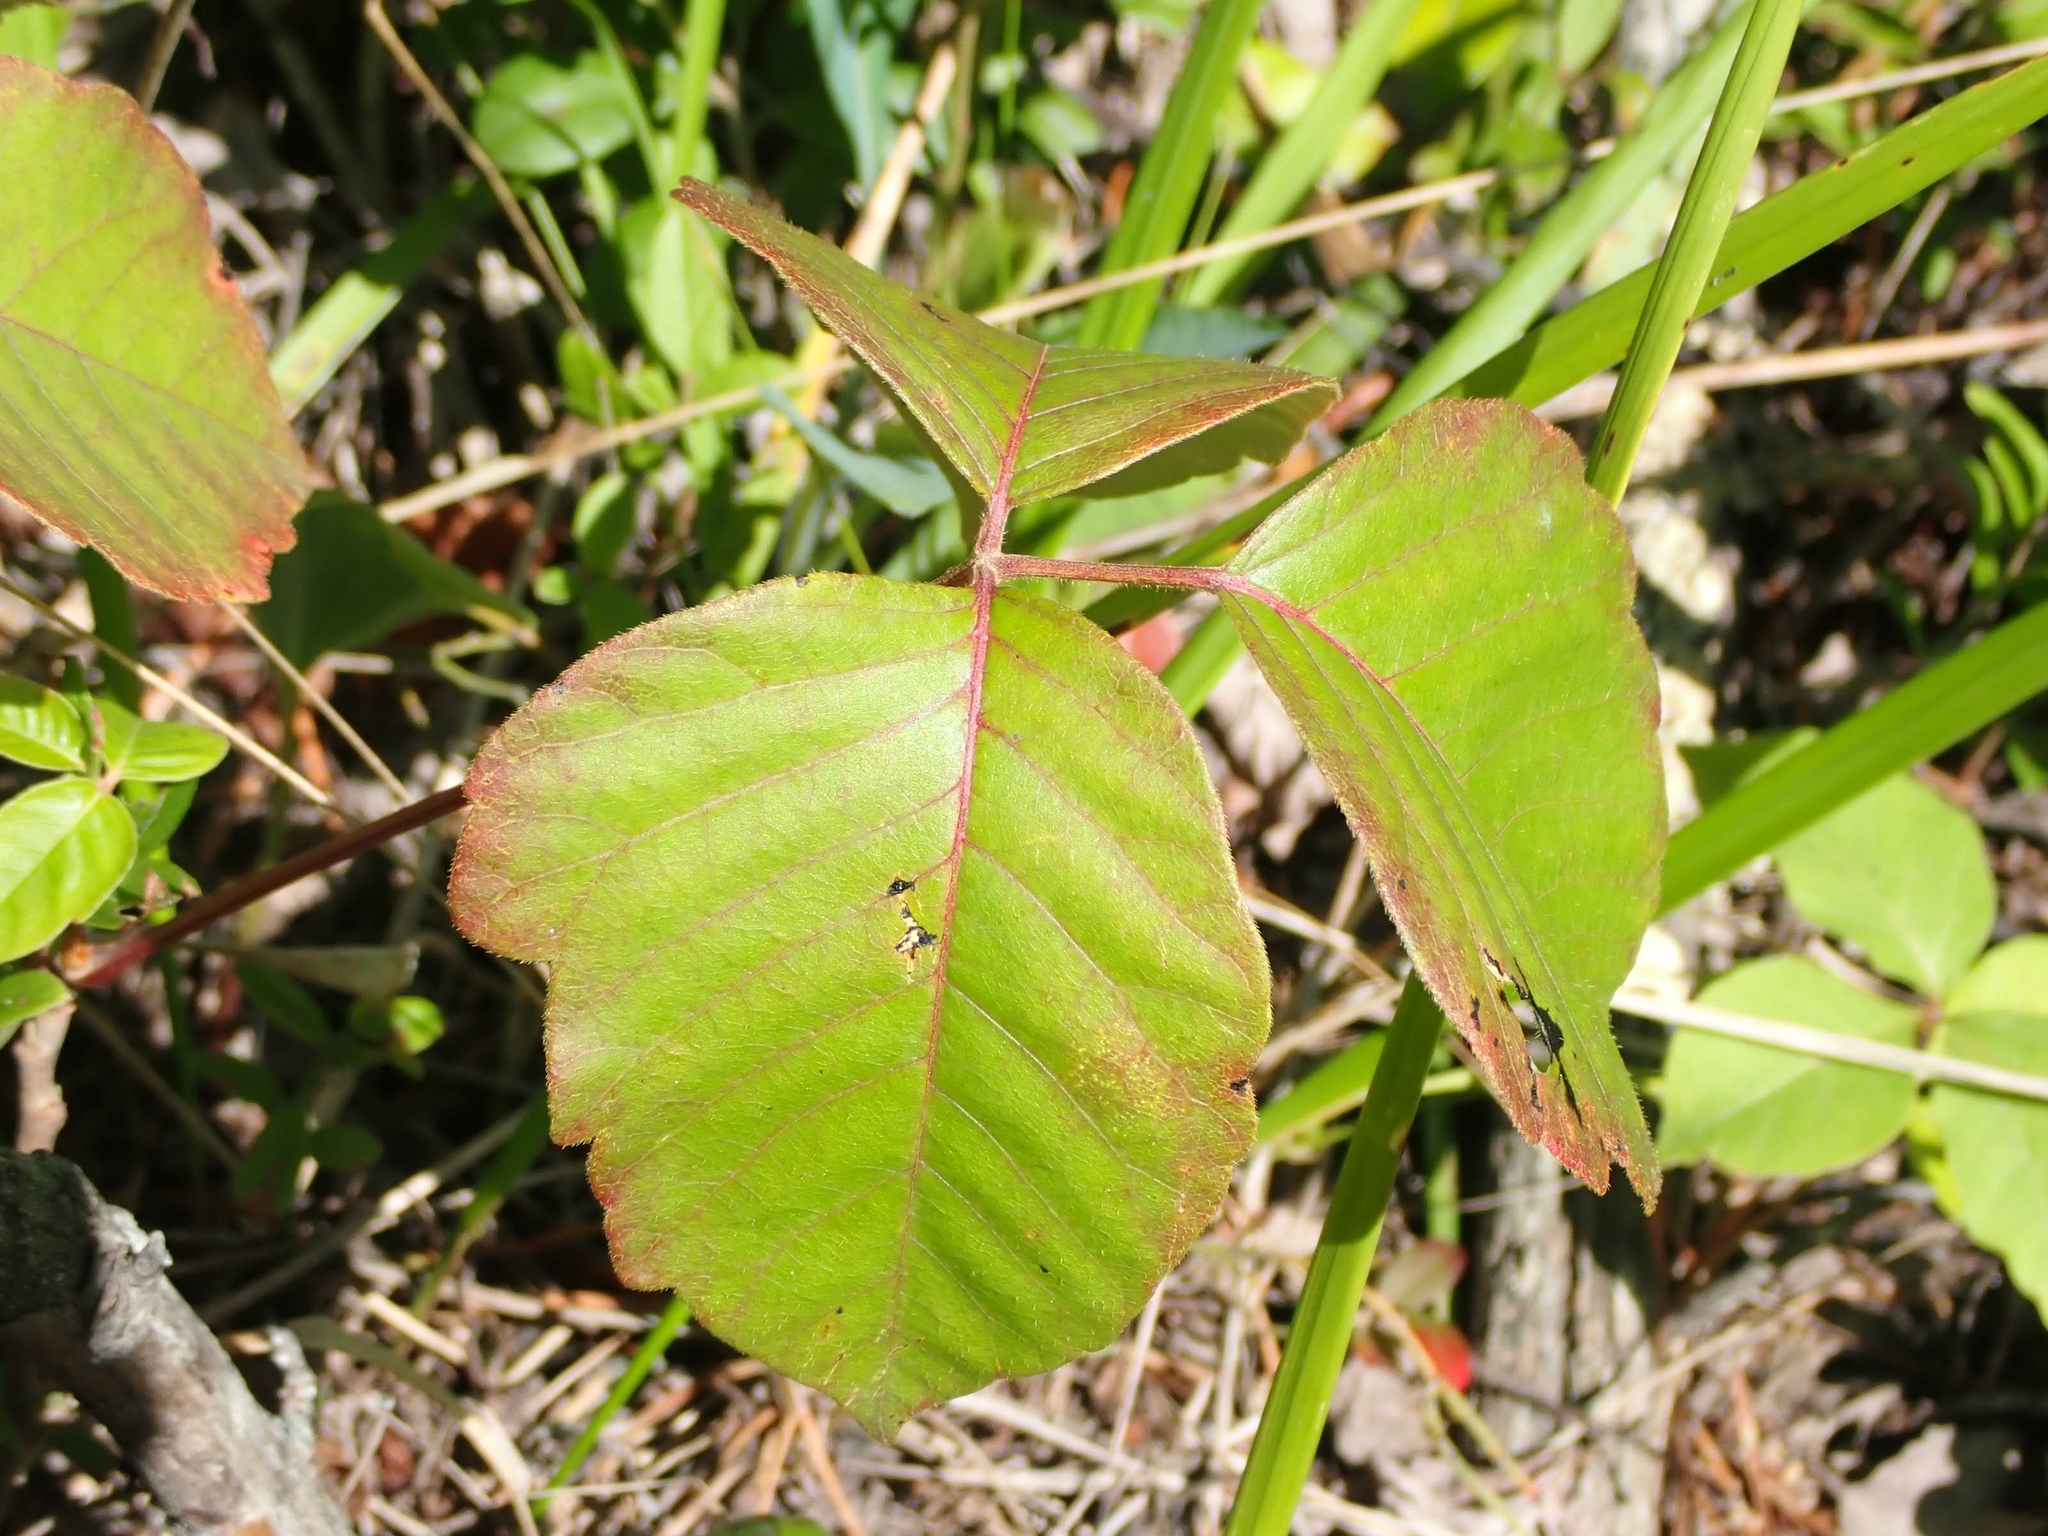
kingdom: Plantae
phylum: Tracheophyta
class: Magnoliopsida
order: Sapindales
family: Anacardiaceae
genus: Toxicodendron
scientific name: Toxicodendron rydbergii
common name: Rydberg's poison-ivy
